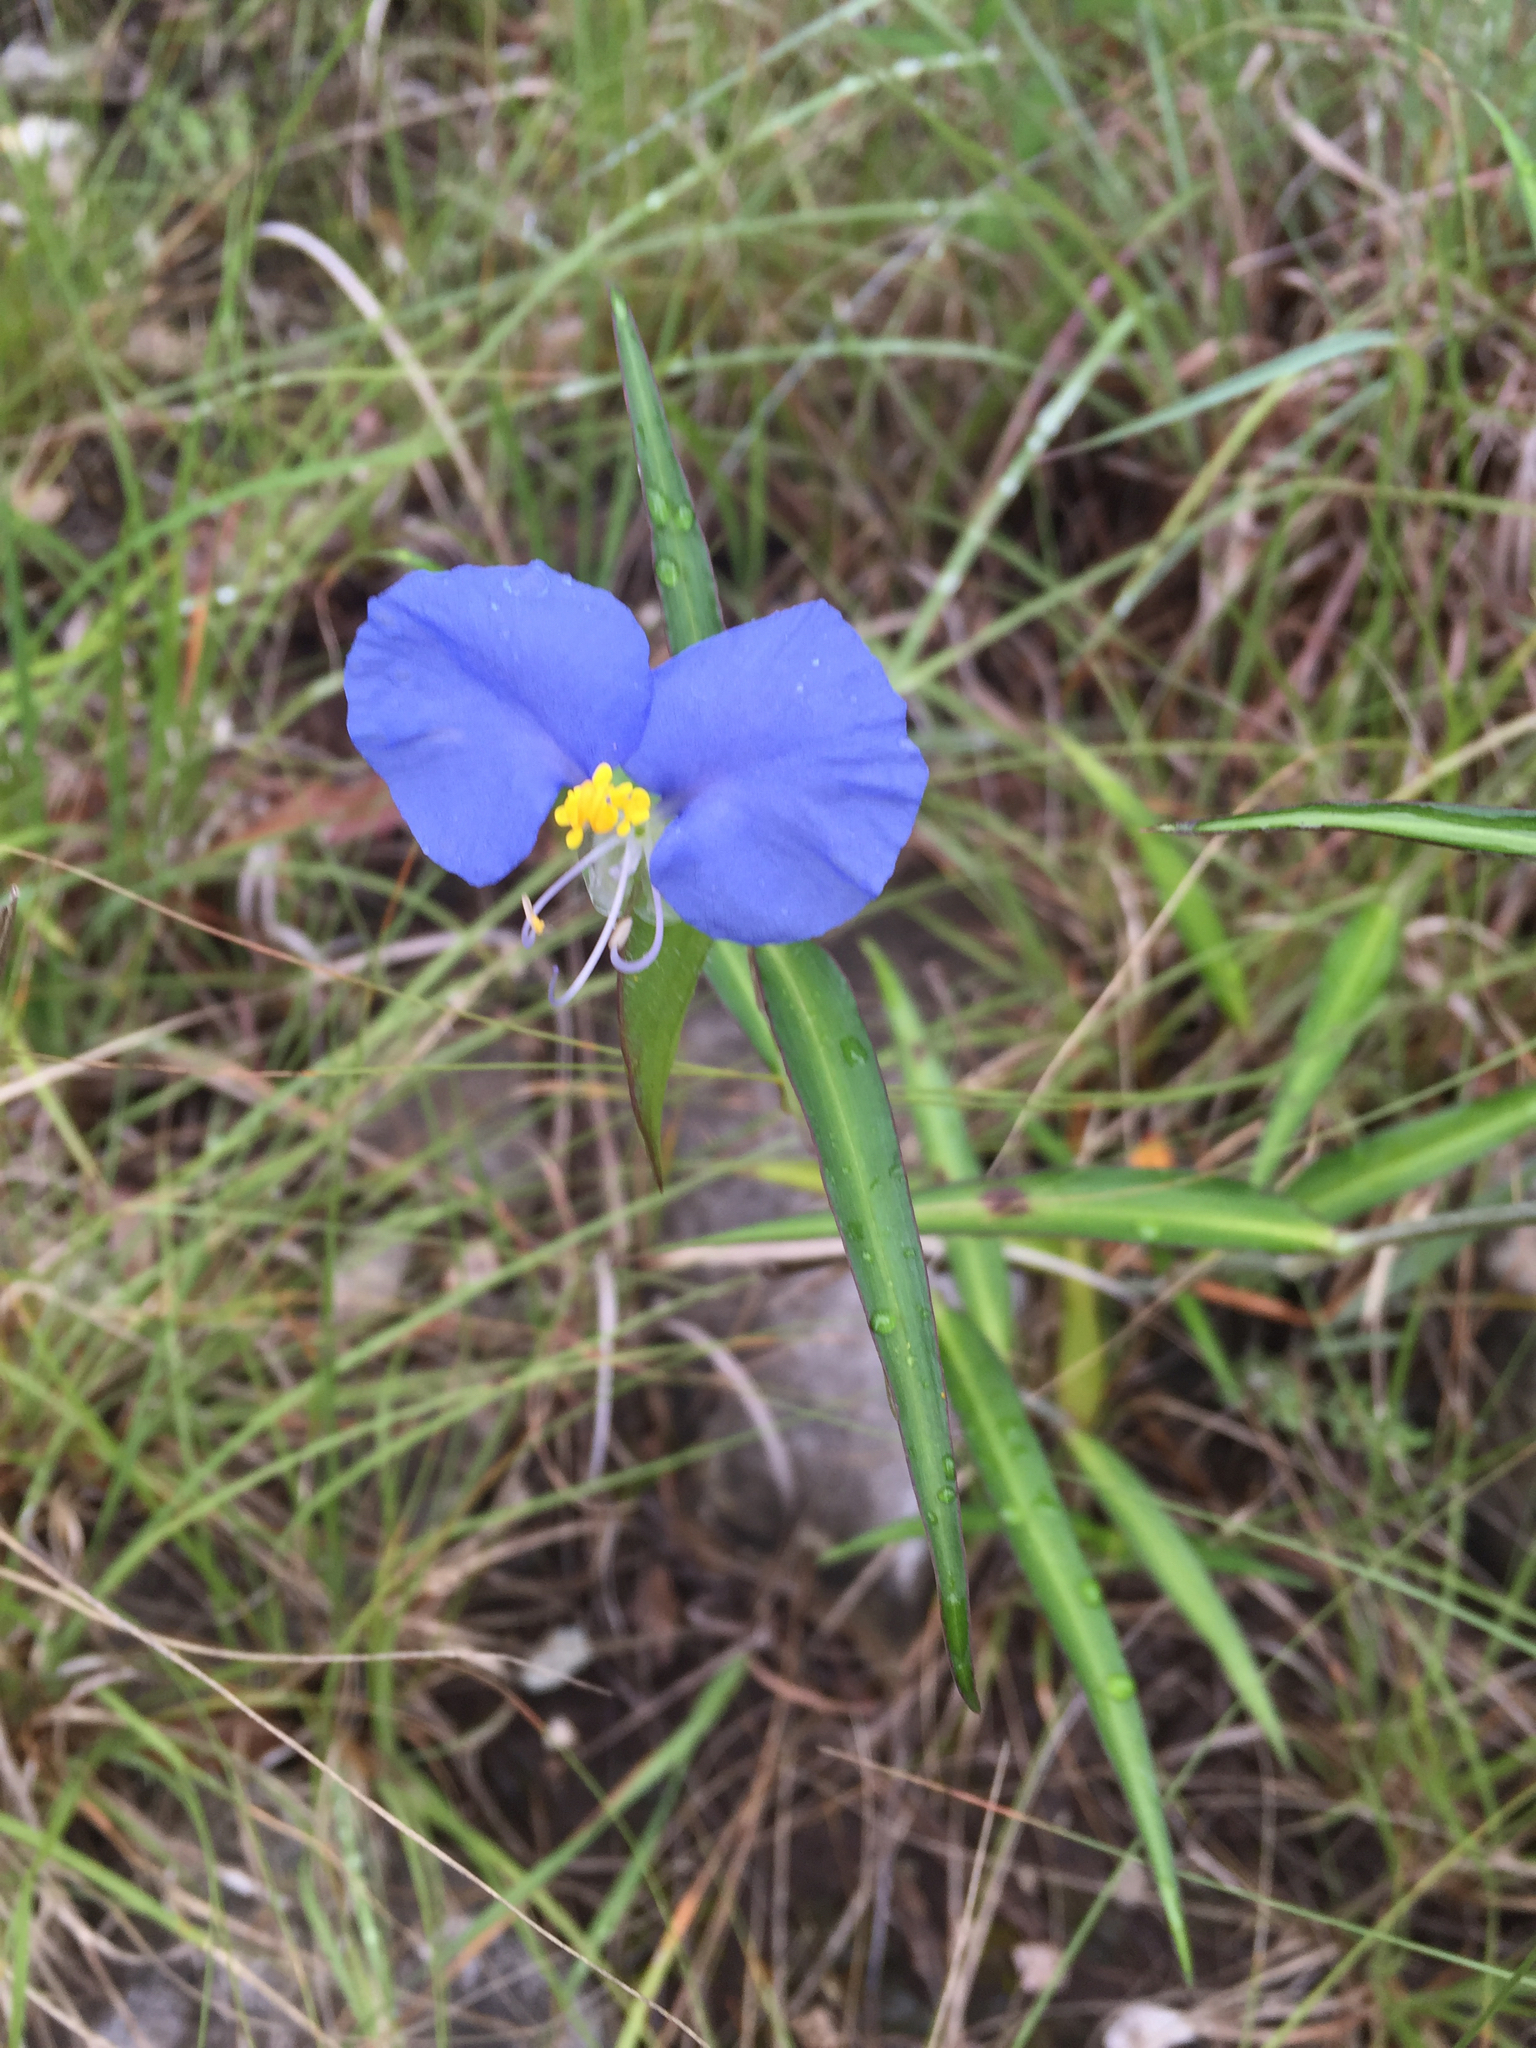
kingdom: Plantae
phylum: Tracheophyta
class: Liliopsida
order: Commelinales
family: Commelinaceae
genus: Commelina
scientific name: Commelina erecta
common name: Blousel blommetjie
